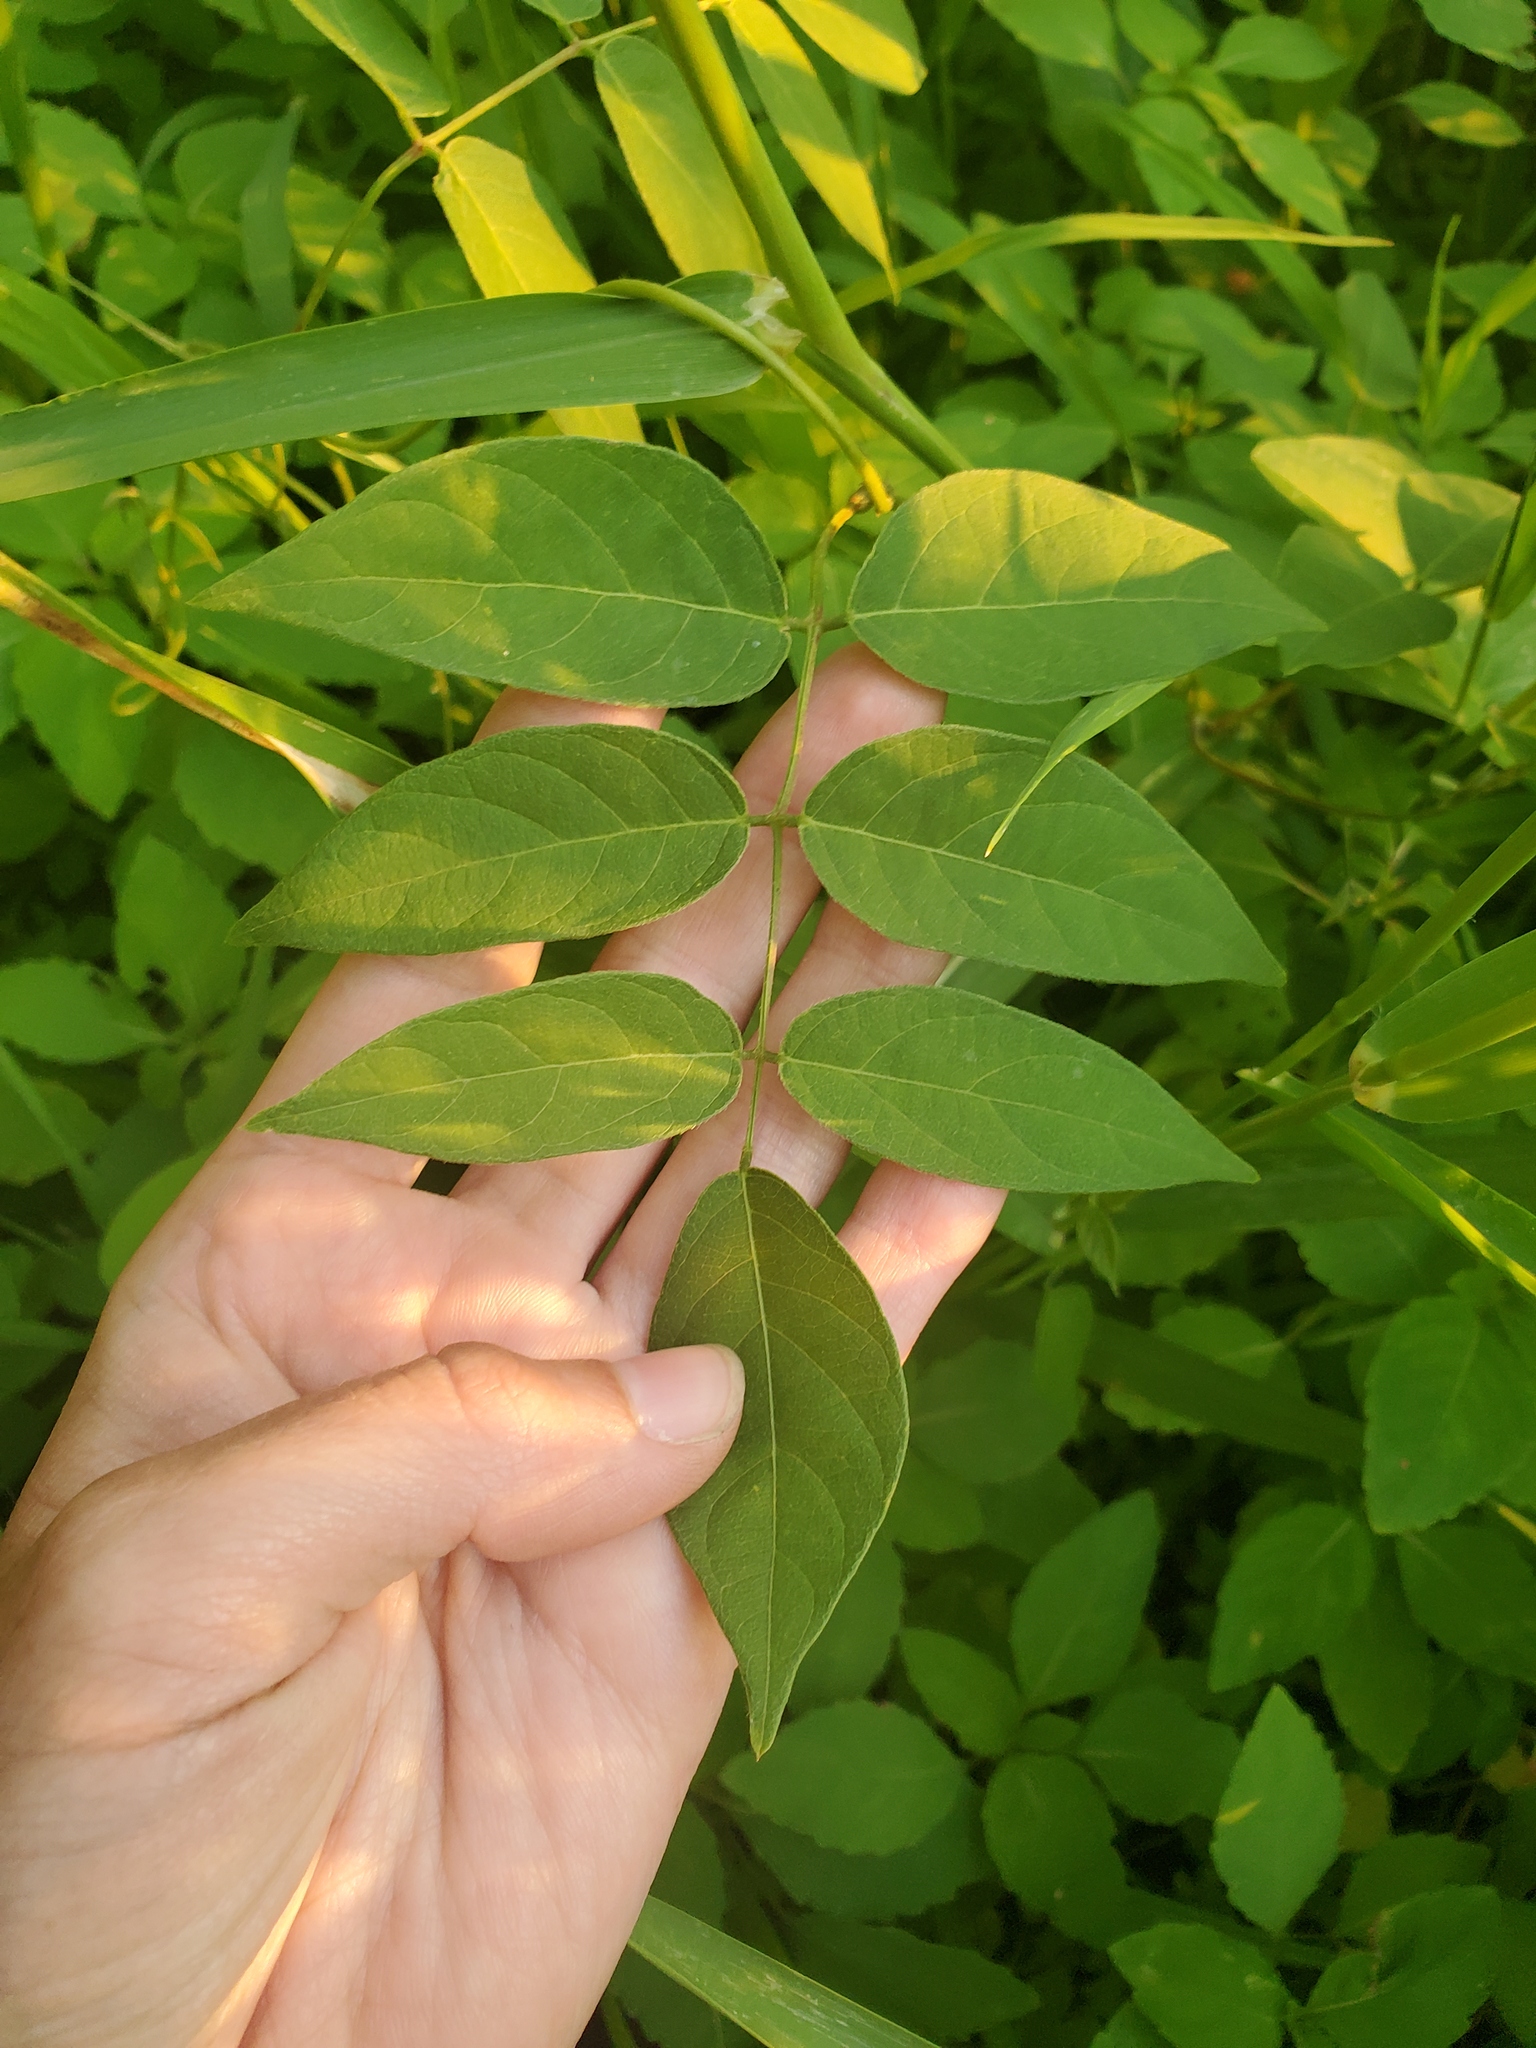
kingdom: Plantae
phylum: Tracheophyta
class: Magnoliopsida
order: Fabales
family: Fabaceae
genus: Apios
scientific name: Apios americana
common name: American potato-bean
